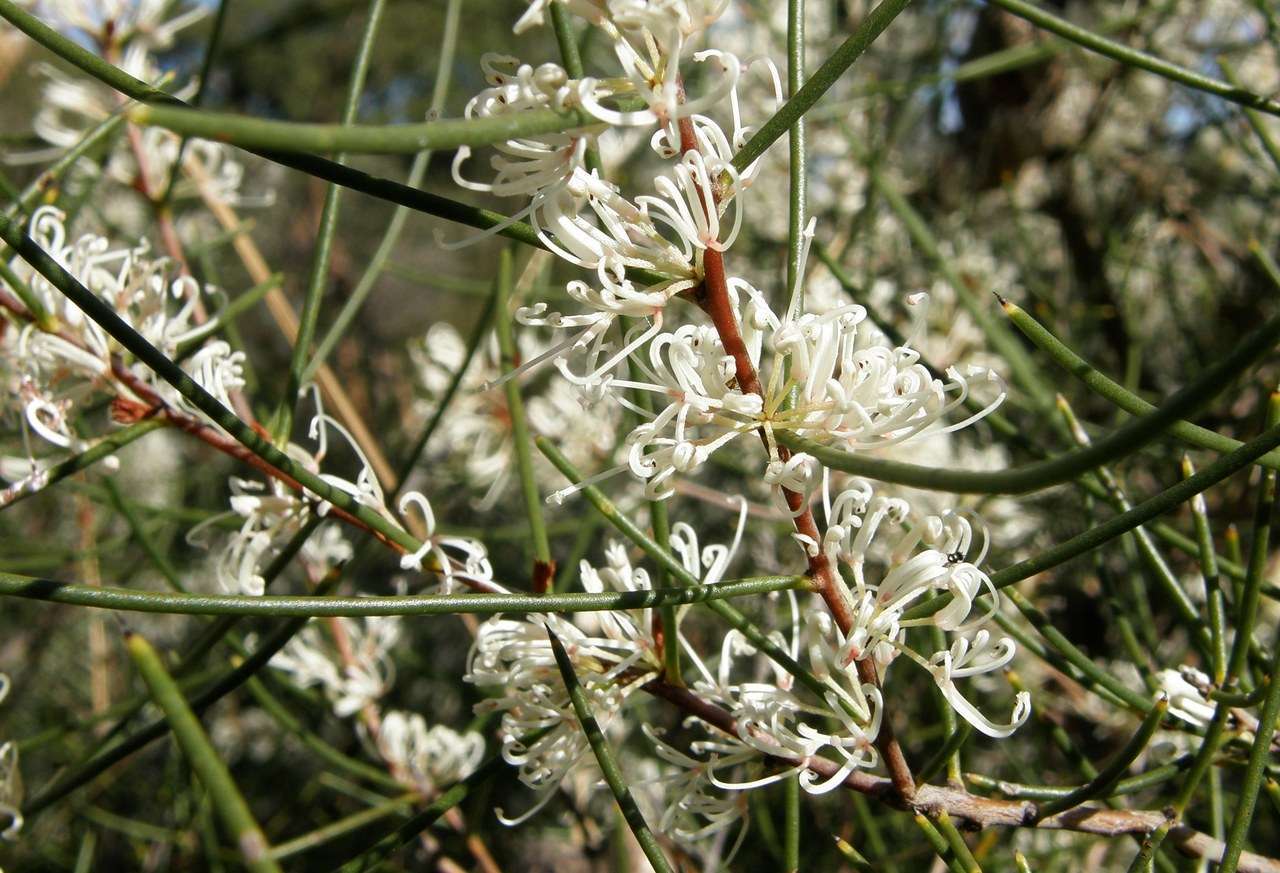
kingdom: Plantae
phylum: Tracheophyta
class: Magnoliopsida
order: Proteales
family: Proteaceae
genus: Hakea
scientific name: Hakea rostrata
